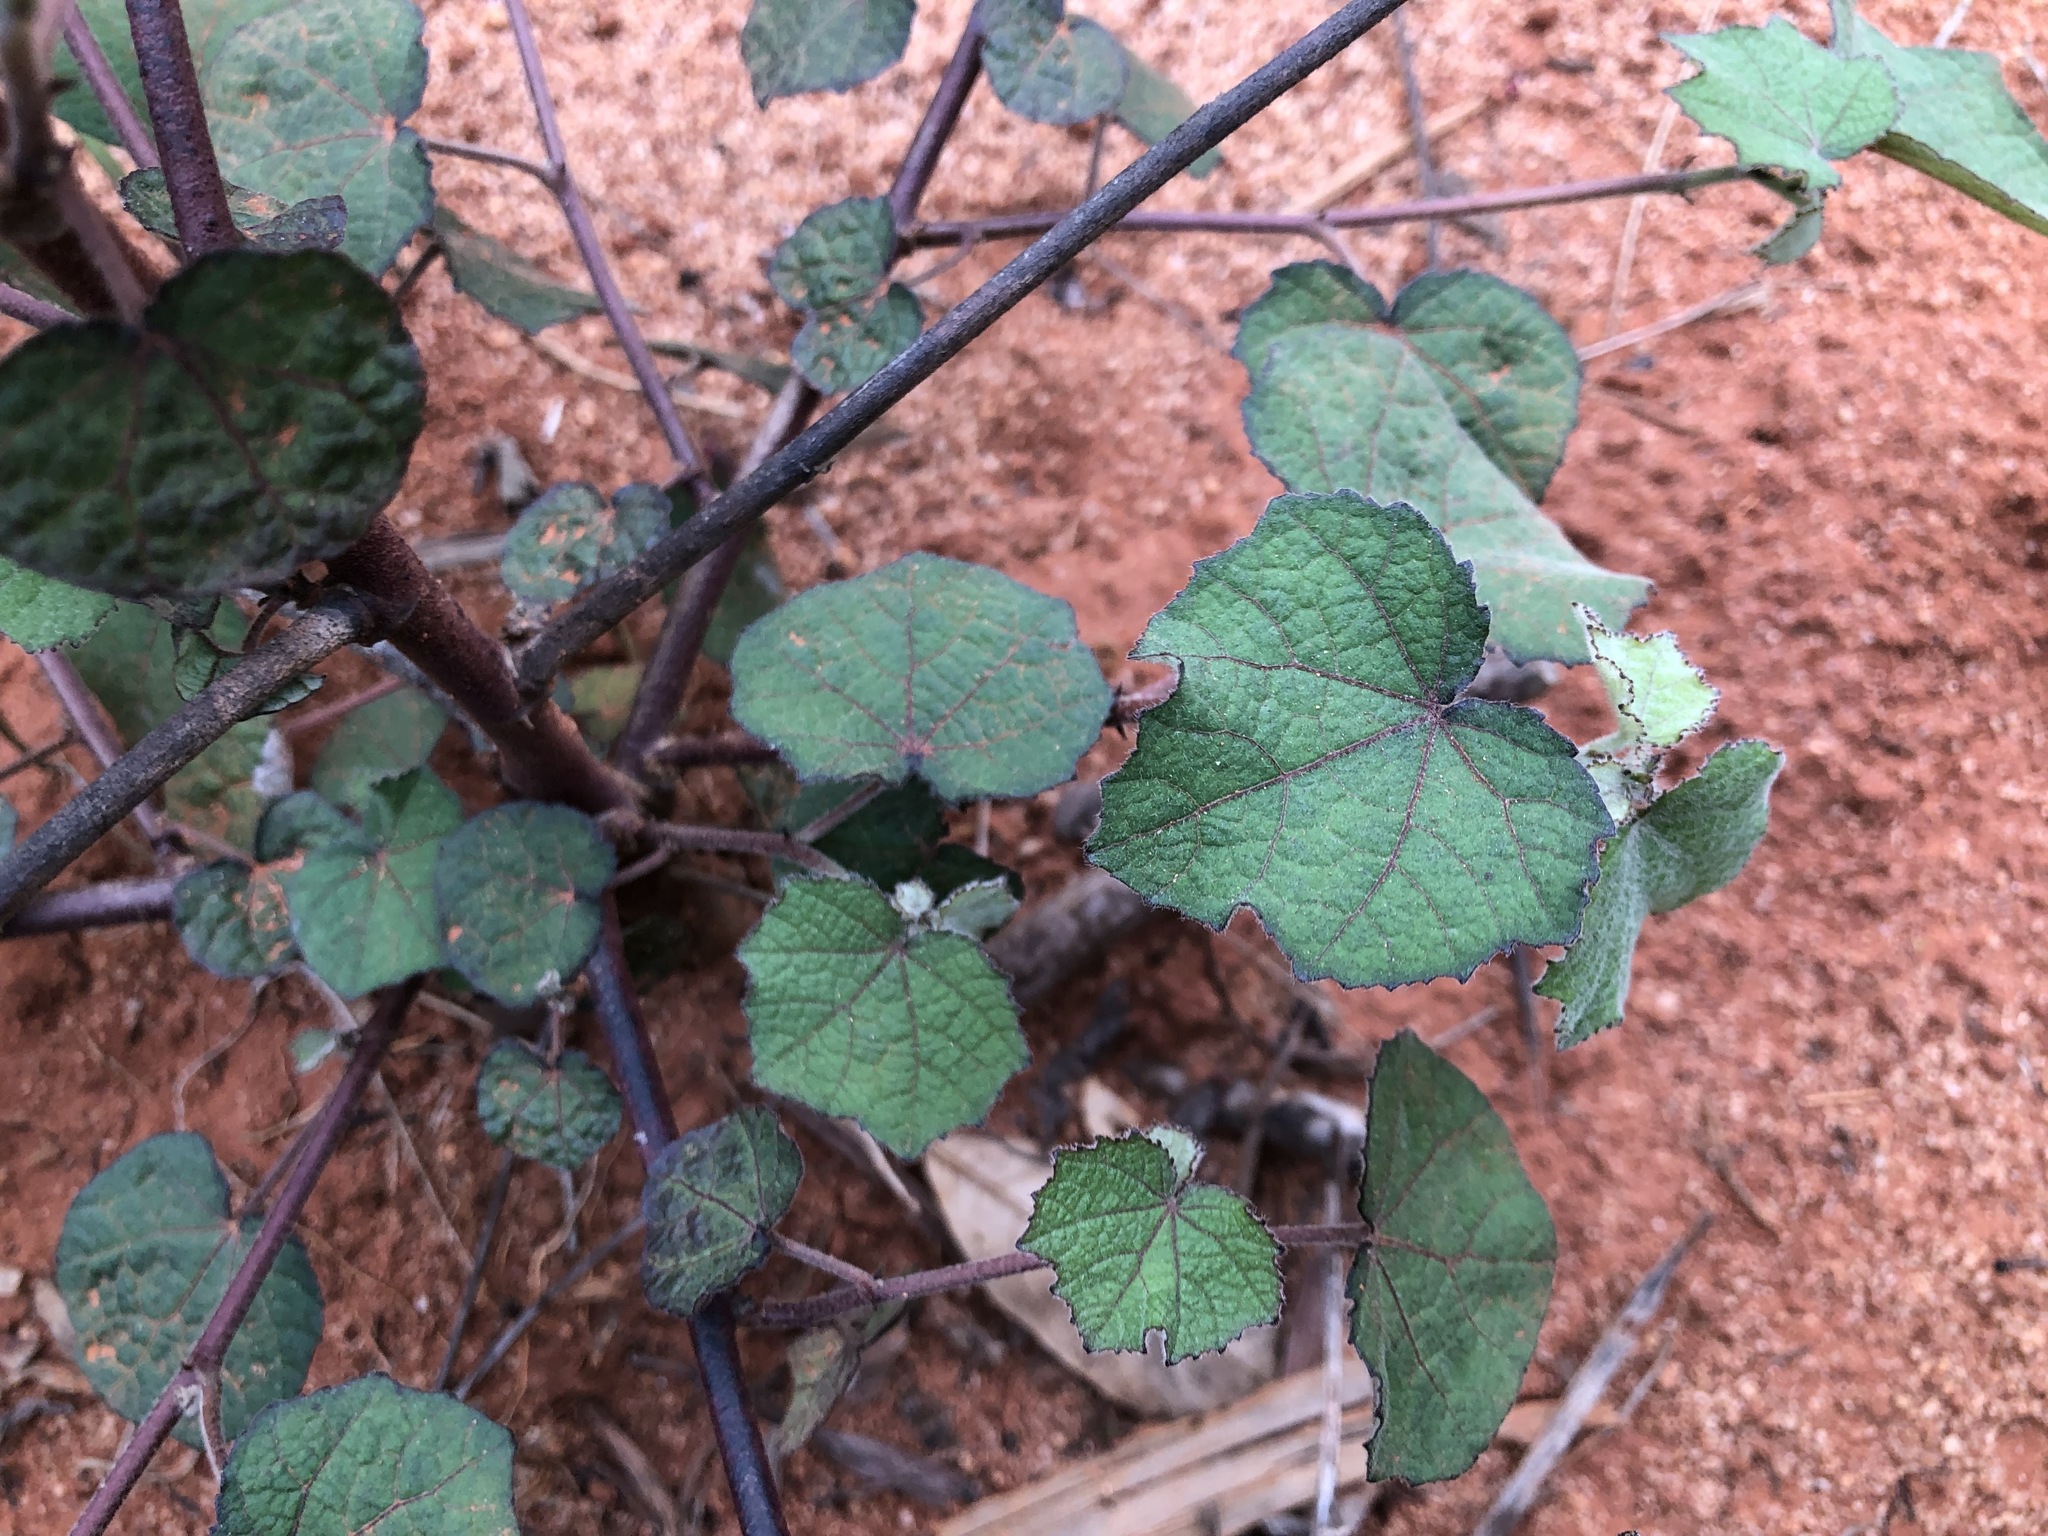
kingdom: Plantae
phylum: Tracheophyta
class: Magnoliopsida
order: Malvales
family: Malvaceae
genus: Urena
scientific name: Urena lobata
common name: Caesarweed
